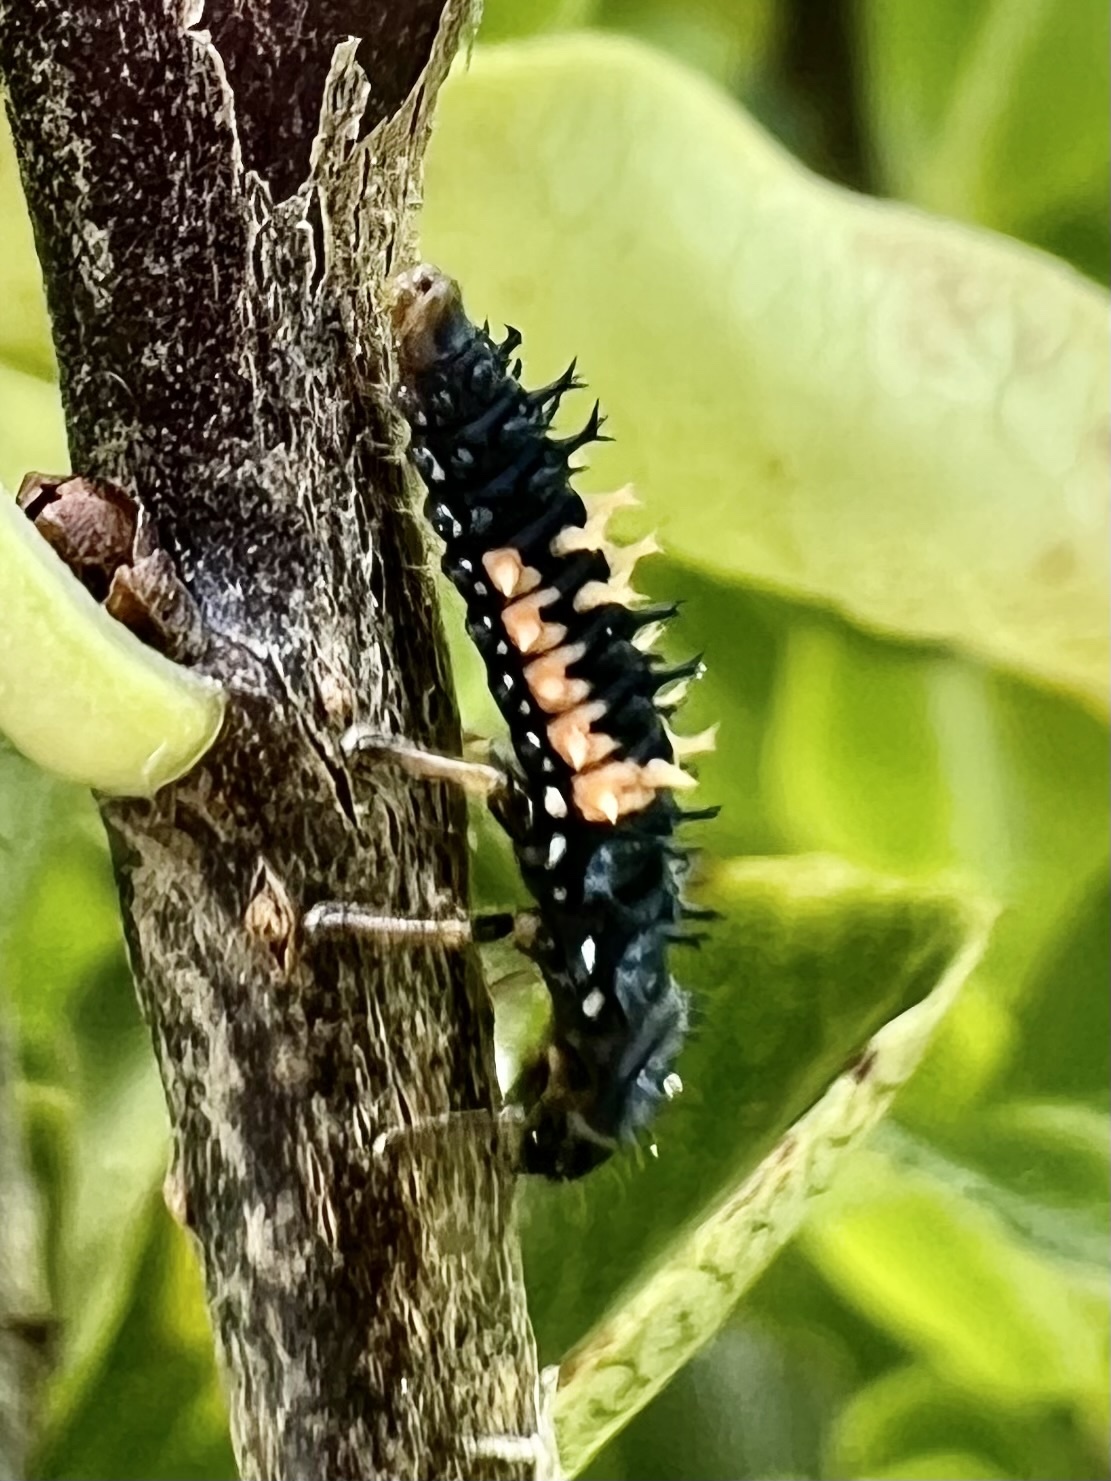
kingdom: Animalia
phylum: Arthropoda
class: Insecta
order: Coleoptera
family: Coccinellidae
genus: Harmonia
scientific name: Harmonia axyridis
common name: Harlequin ladybird
